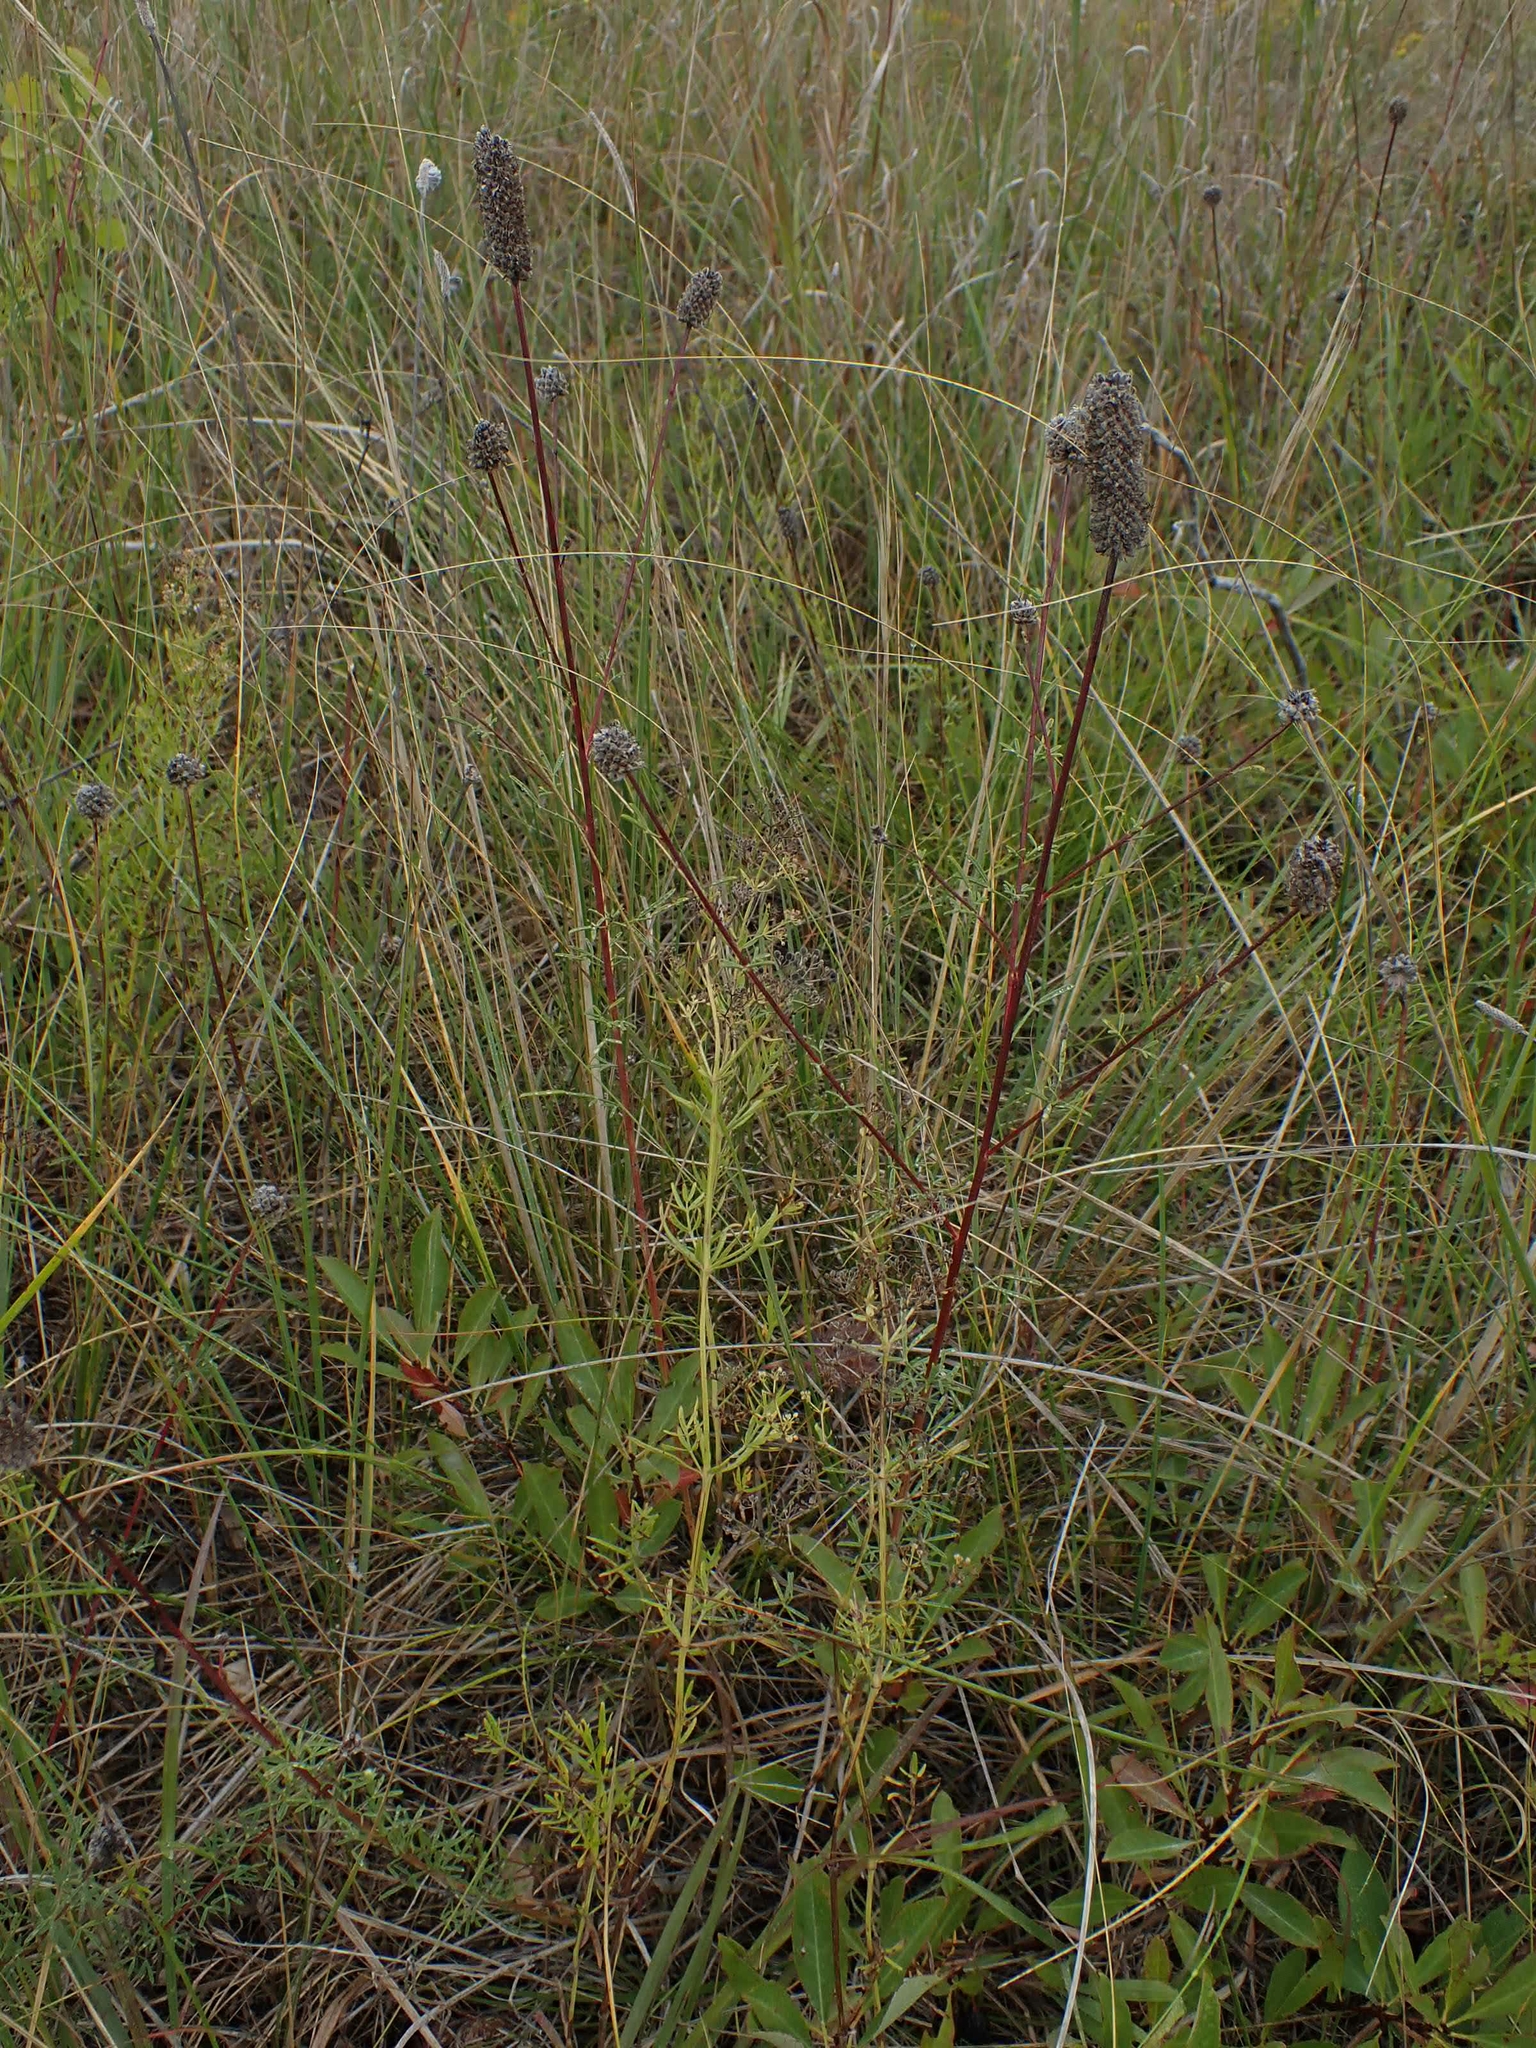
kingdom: Plantae
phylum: Tracheophyta
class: Magnoliopsida
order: Fabales
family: Fabaceae
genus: Dalea
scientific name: Dalea purpurea
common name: Purple prairie-clover
